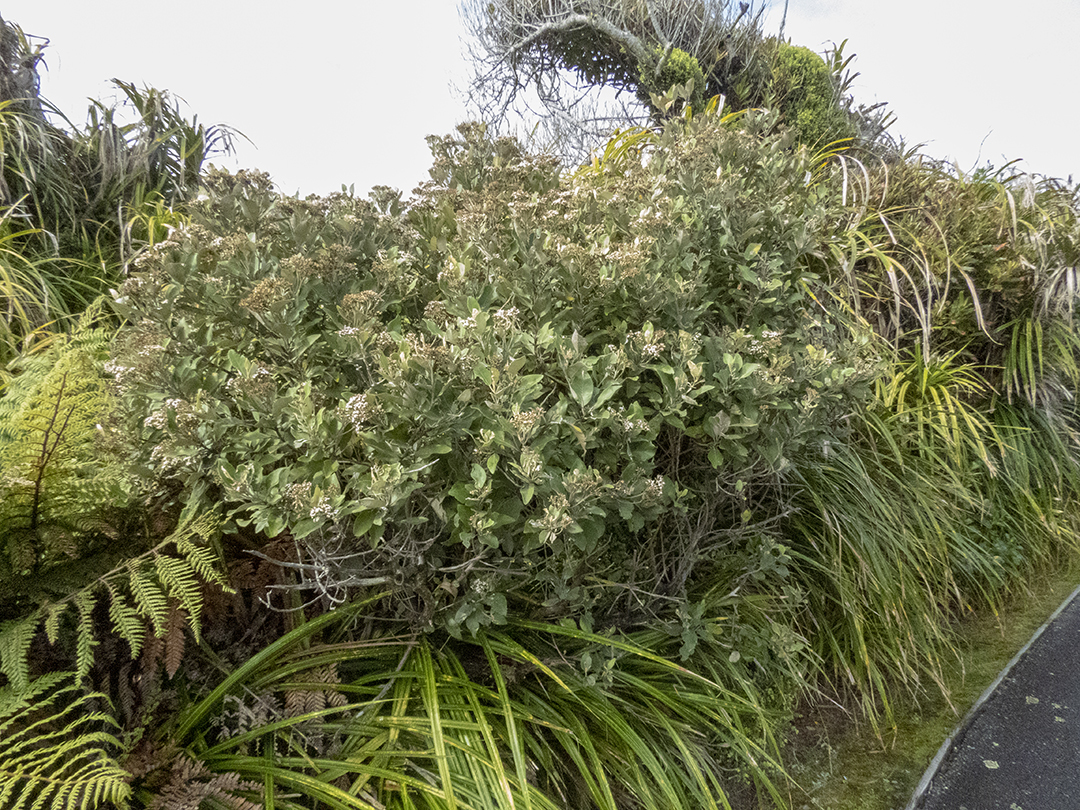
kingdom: Plantae
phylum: Tracheophyta
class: Magnoliopsida
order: Asterales
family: Asteraceae
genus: Olearia
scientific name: Olearia avicenniifolia
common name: Mangrove-leaf daisybush
